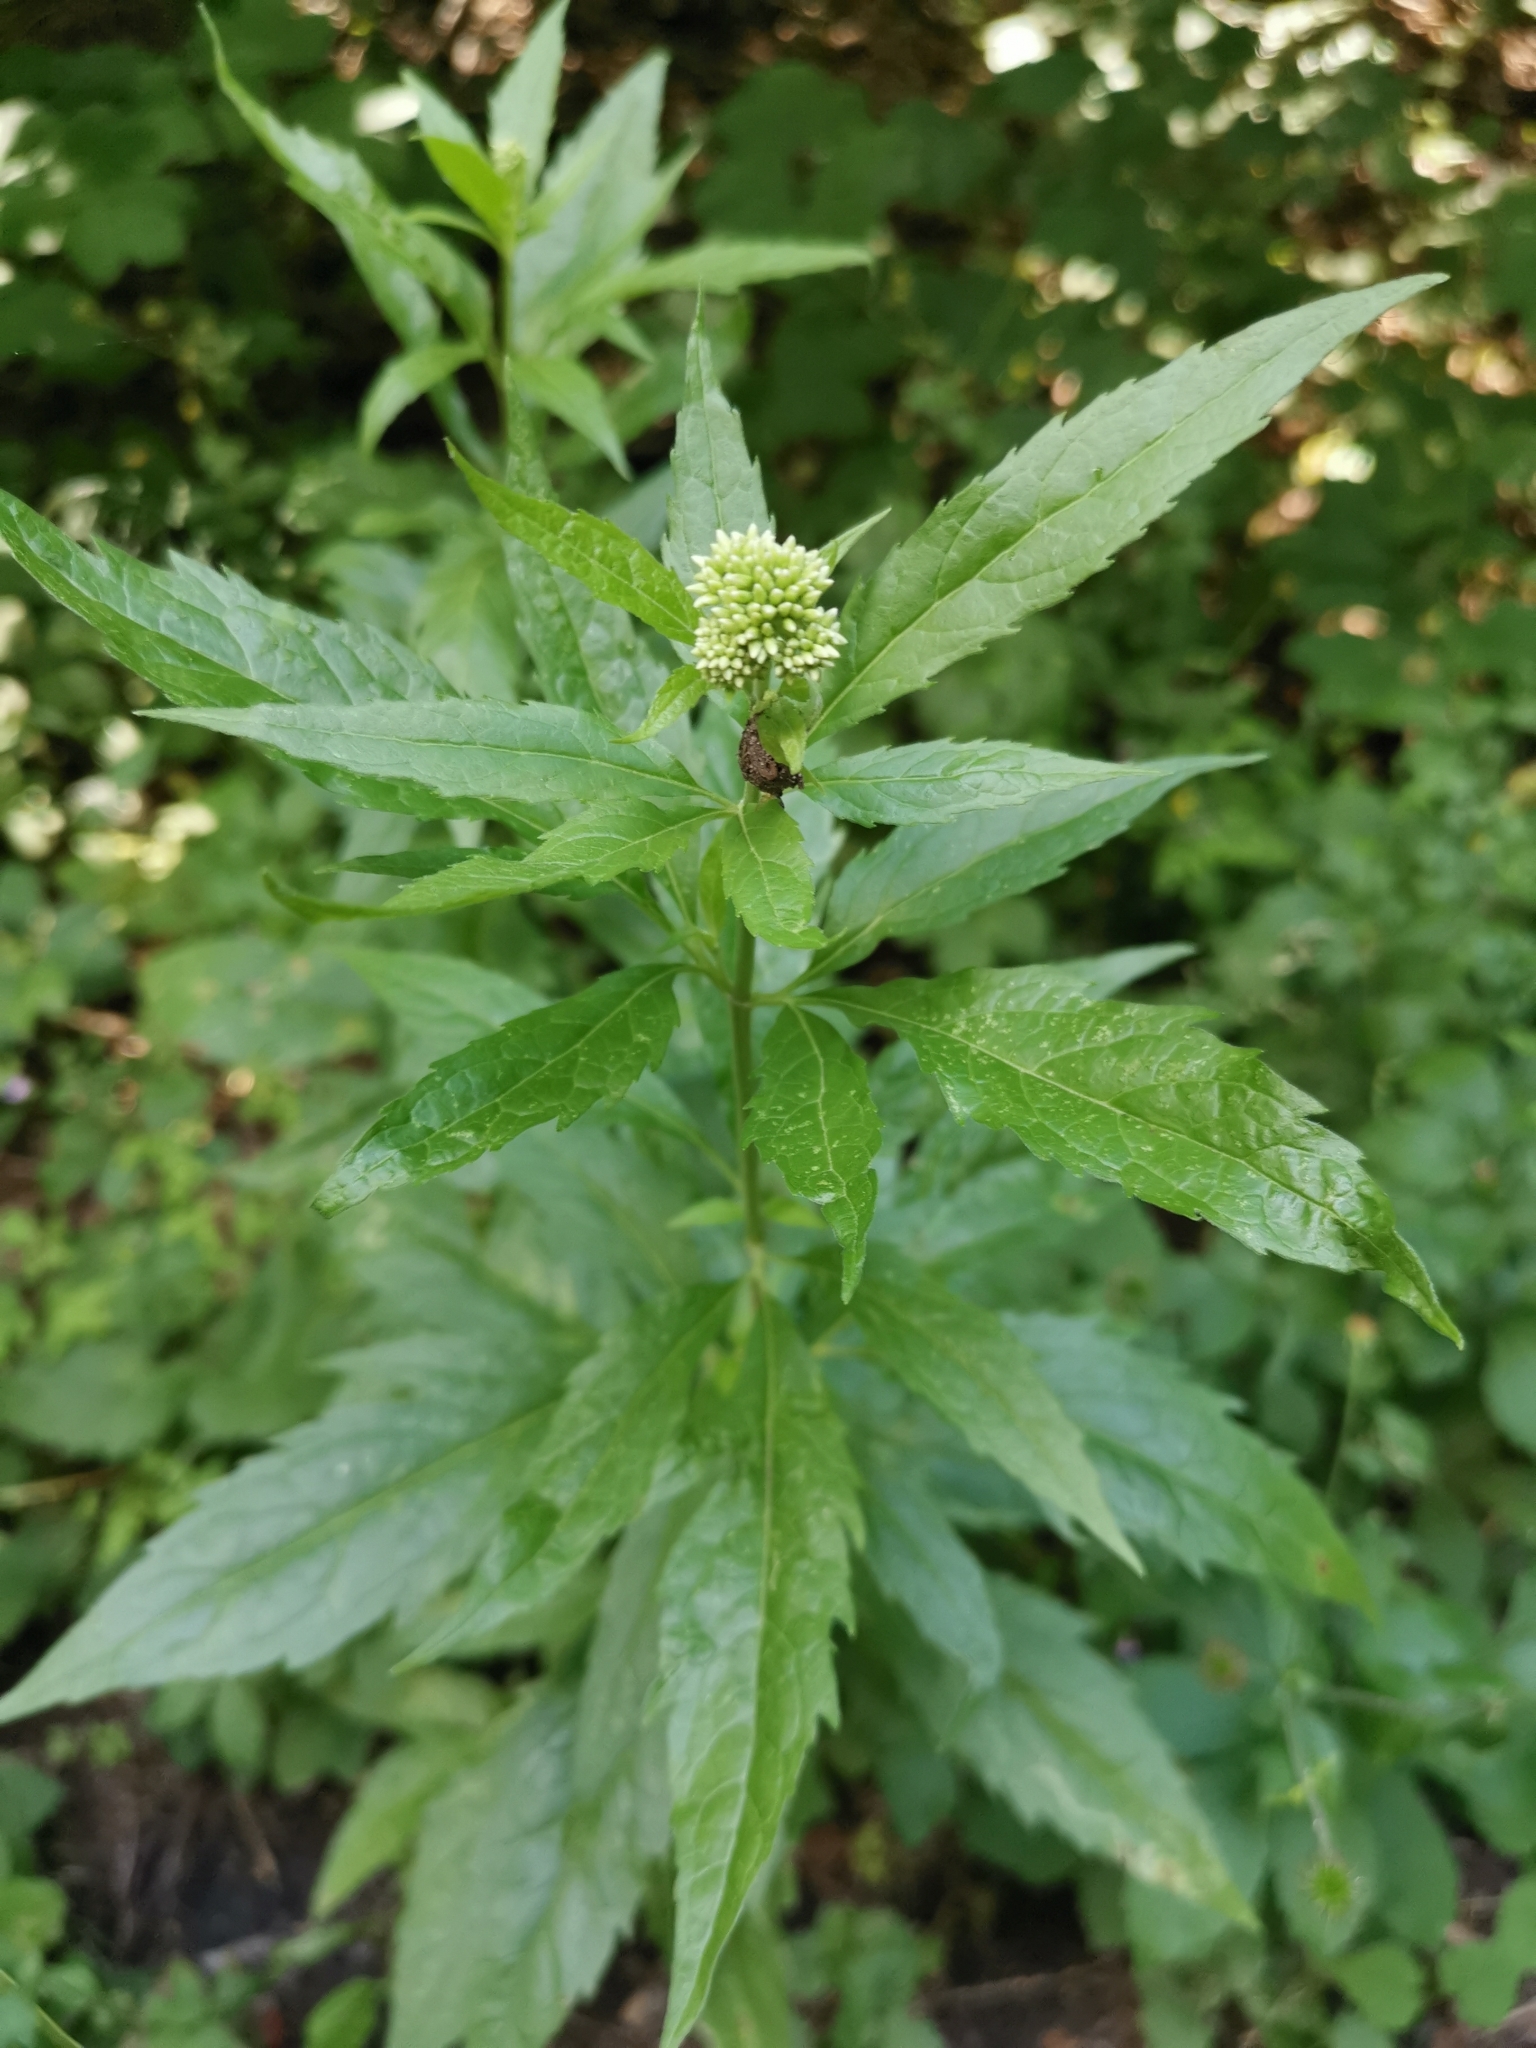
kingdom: Plantae
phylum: Tracheophyta
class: Magnoliopsida
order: Asterales
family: Asteraceae
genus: Eupatorium
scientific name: Eupatorium cannabinum
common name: Hemp-agrimony
